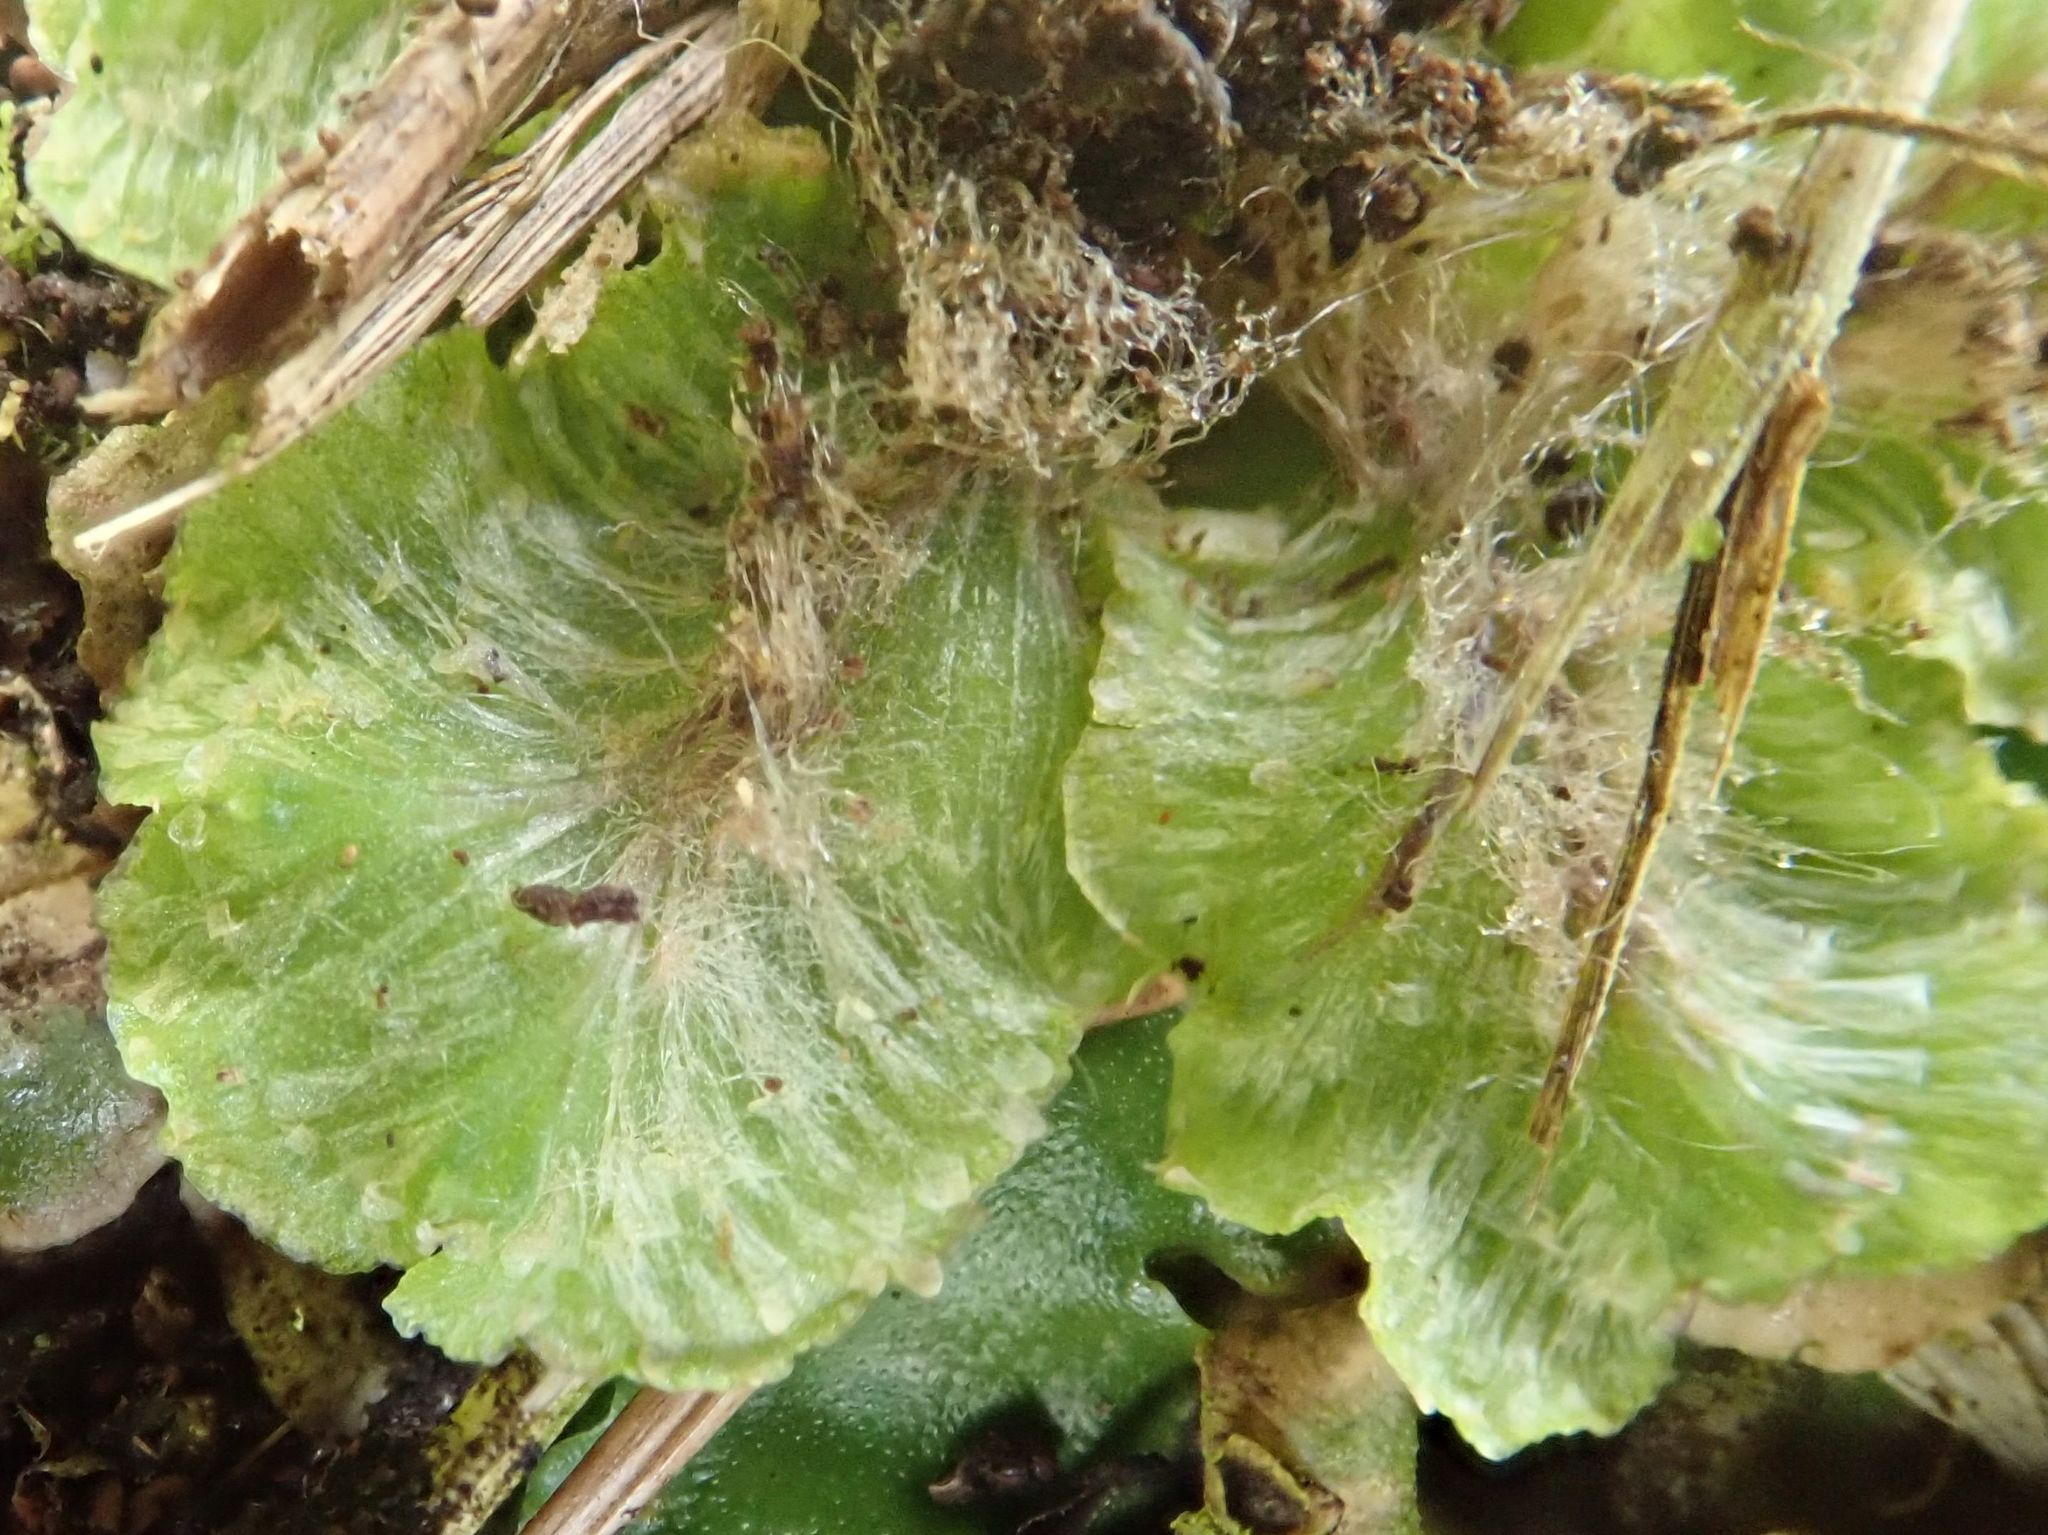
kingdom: Plantae
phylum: Marchantiophyta
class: Marchantiopsida
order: Marchantiales
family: Marchantiaceae
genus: Marchantia
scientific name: Marchantia berteroana
